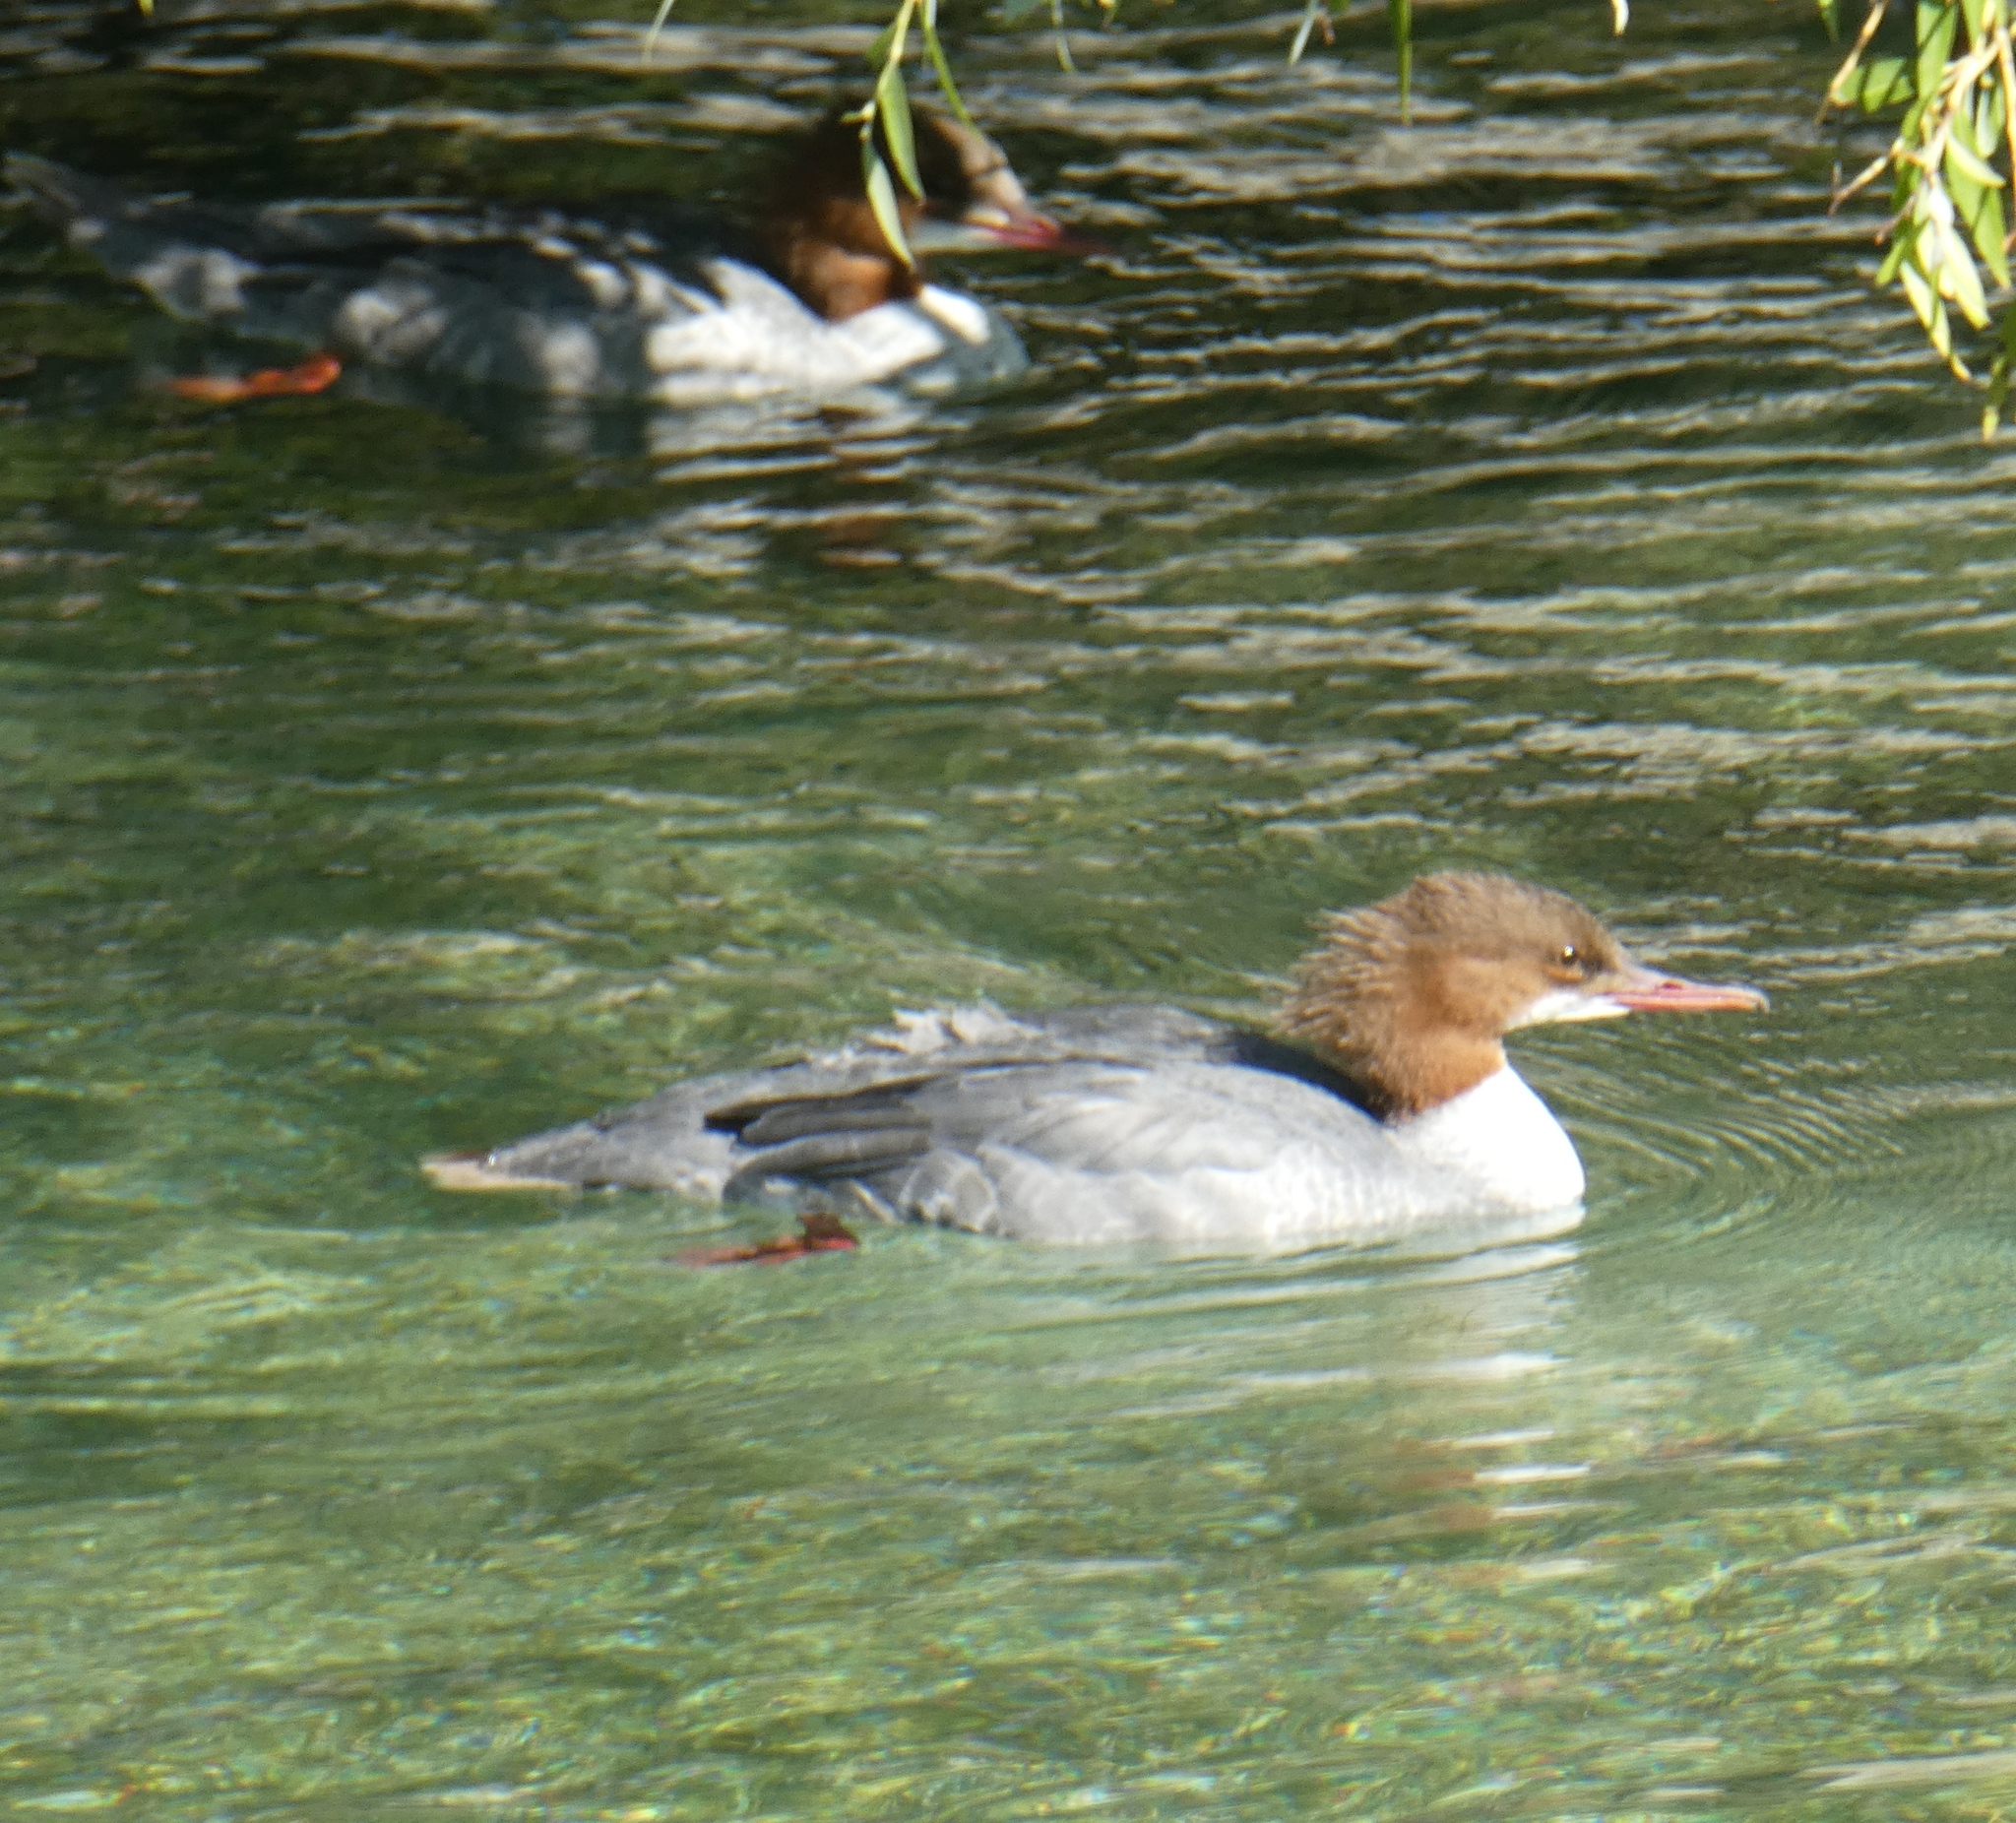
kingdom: Animalia
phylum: Chordata
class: Aves
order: Anseriformes
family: Anatidae
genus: Mergus
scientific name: Mergus merganser
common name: Common merganser
